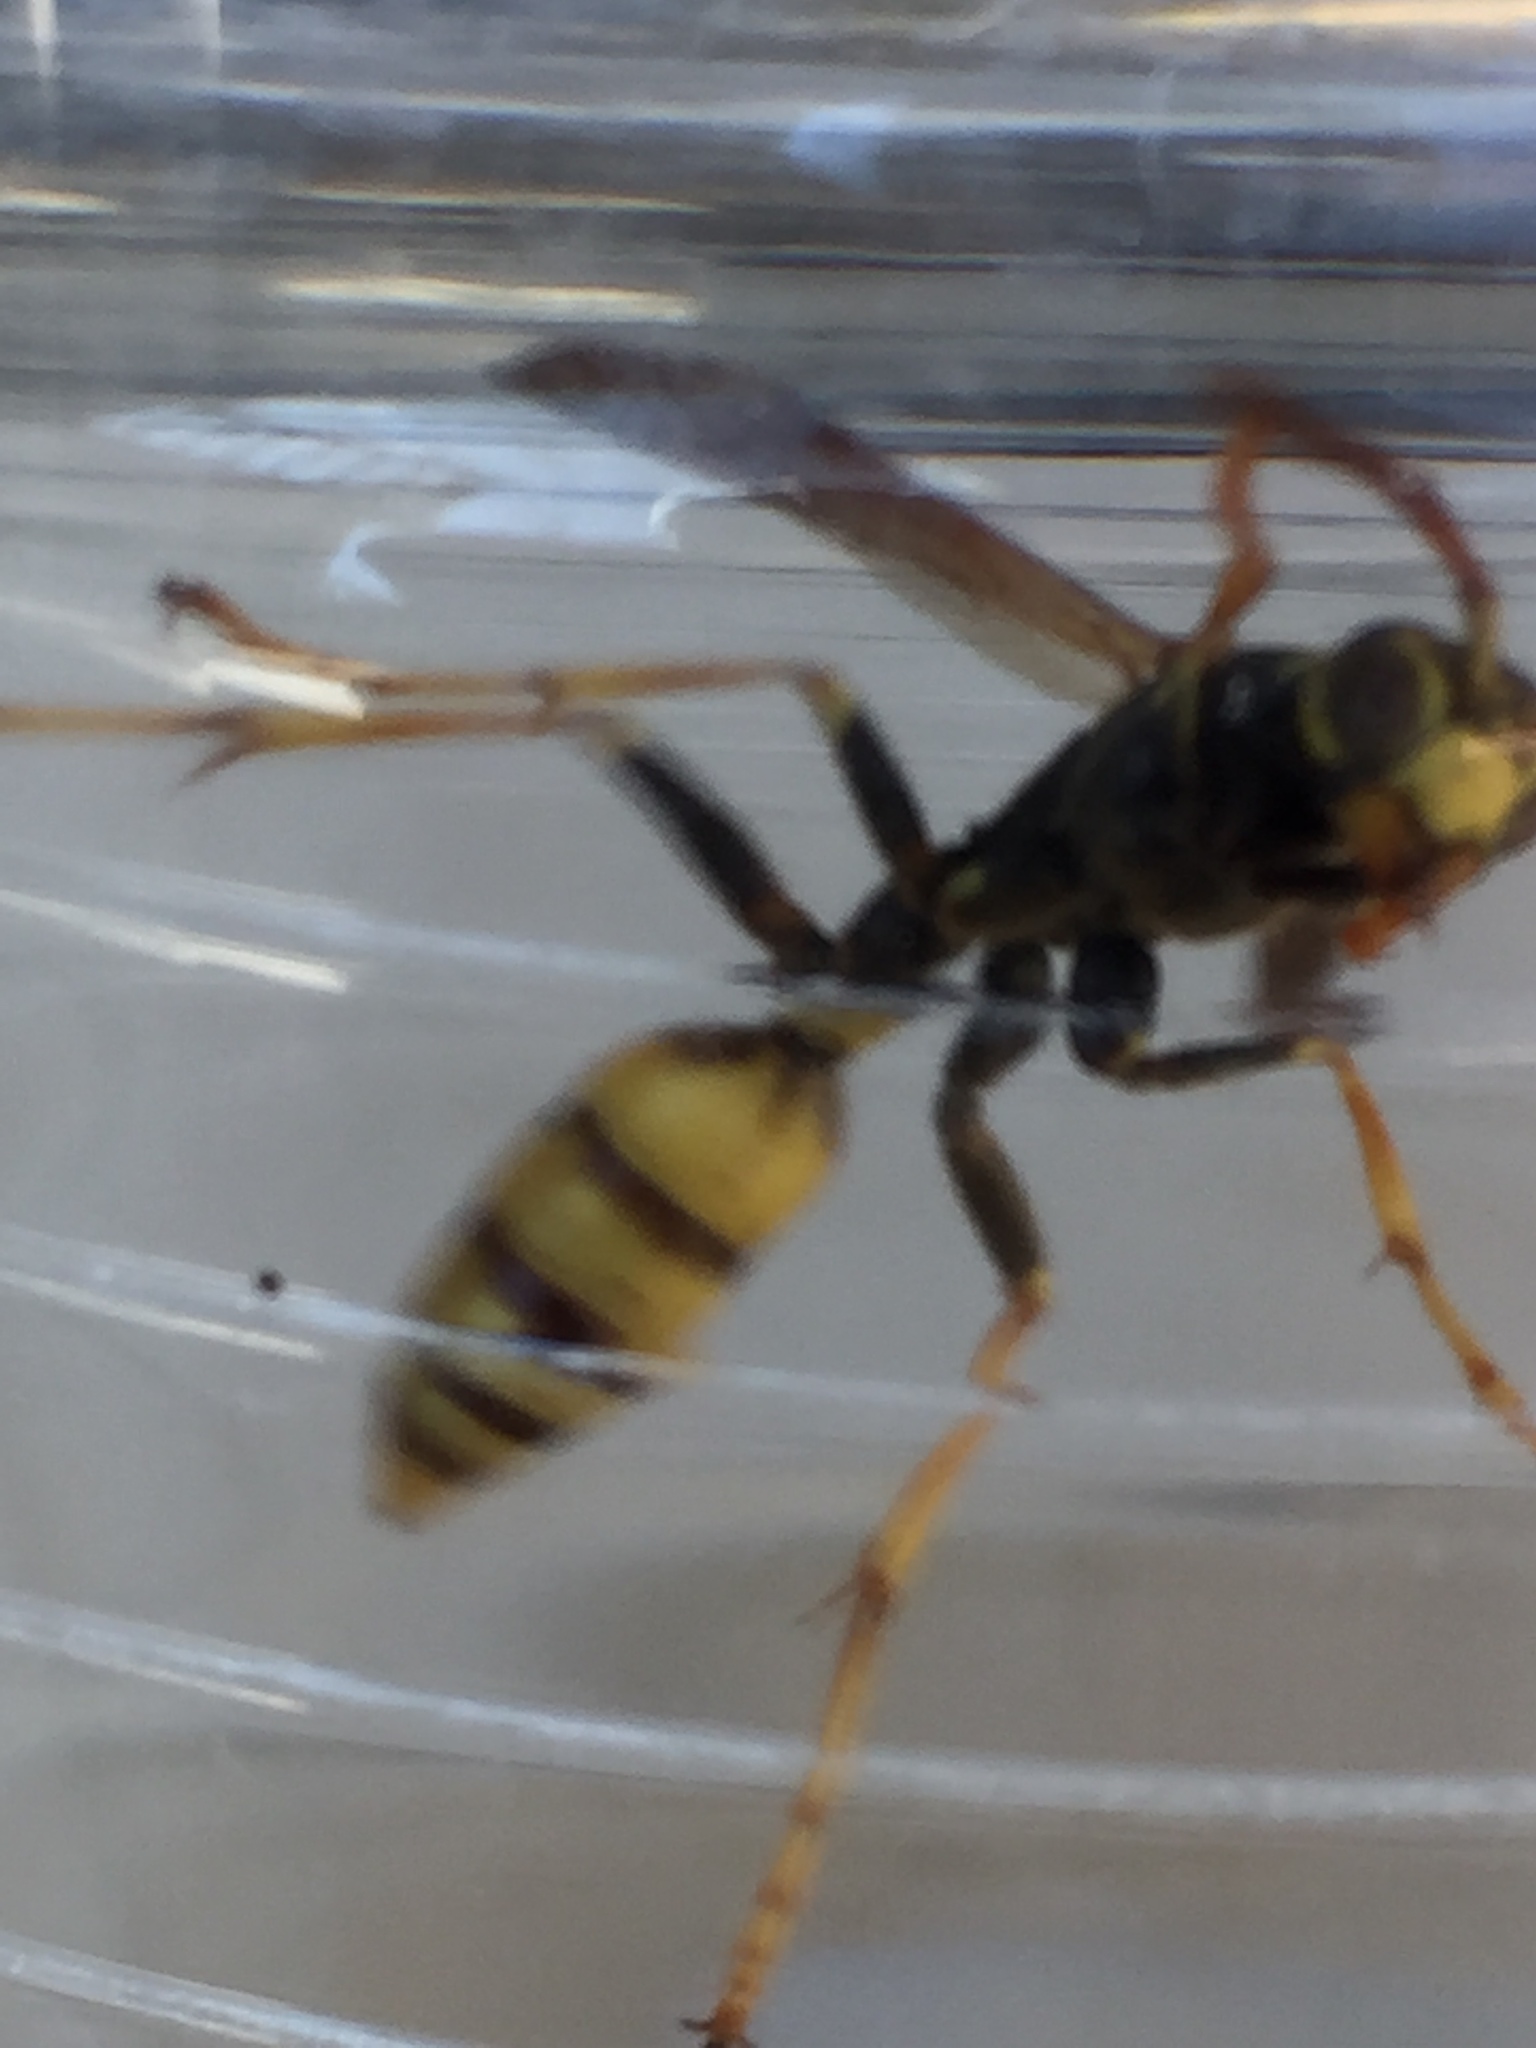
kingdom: Animalia
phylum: Arthropoda
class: Insecta
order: Hymenoptera
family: Vespidae
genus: Mischocyttarus
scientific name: Mischocyttarus flavitarsis
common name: Wasp
